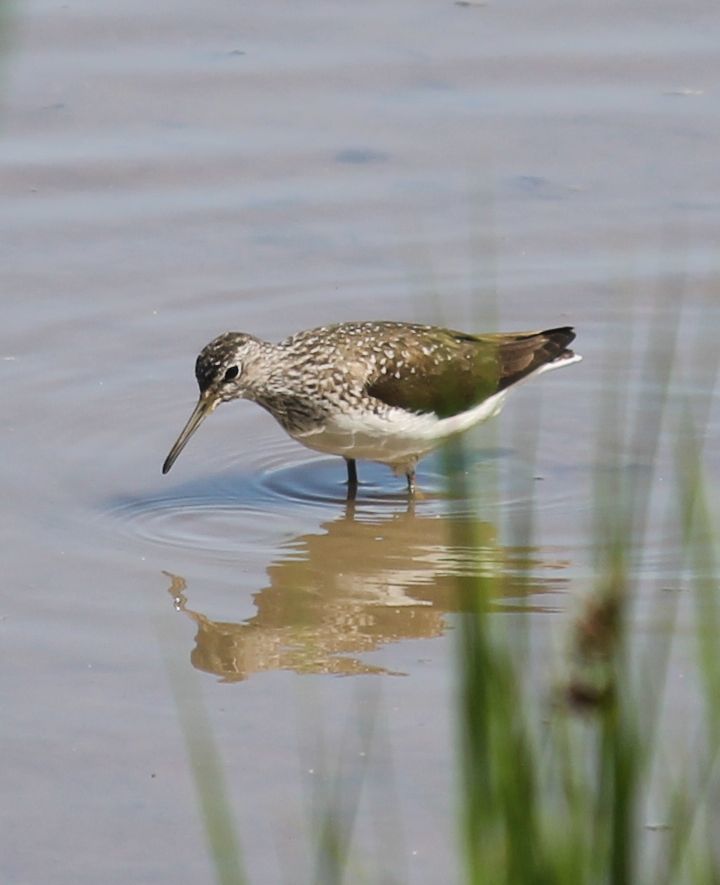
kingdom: Animalia
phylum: Chordata
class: Aves
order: Charadriiformes
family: Scolopacidae
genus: Tringa
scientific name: Tringa ochropus
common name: Green sandpiper
